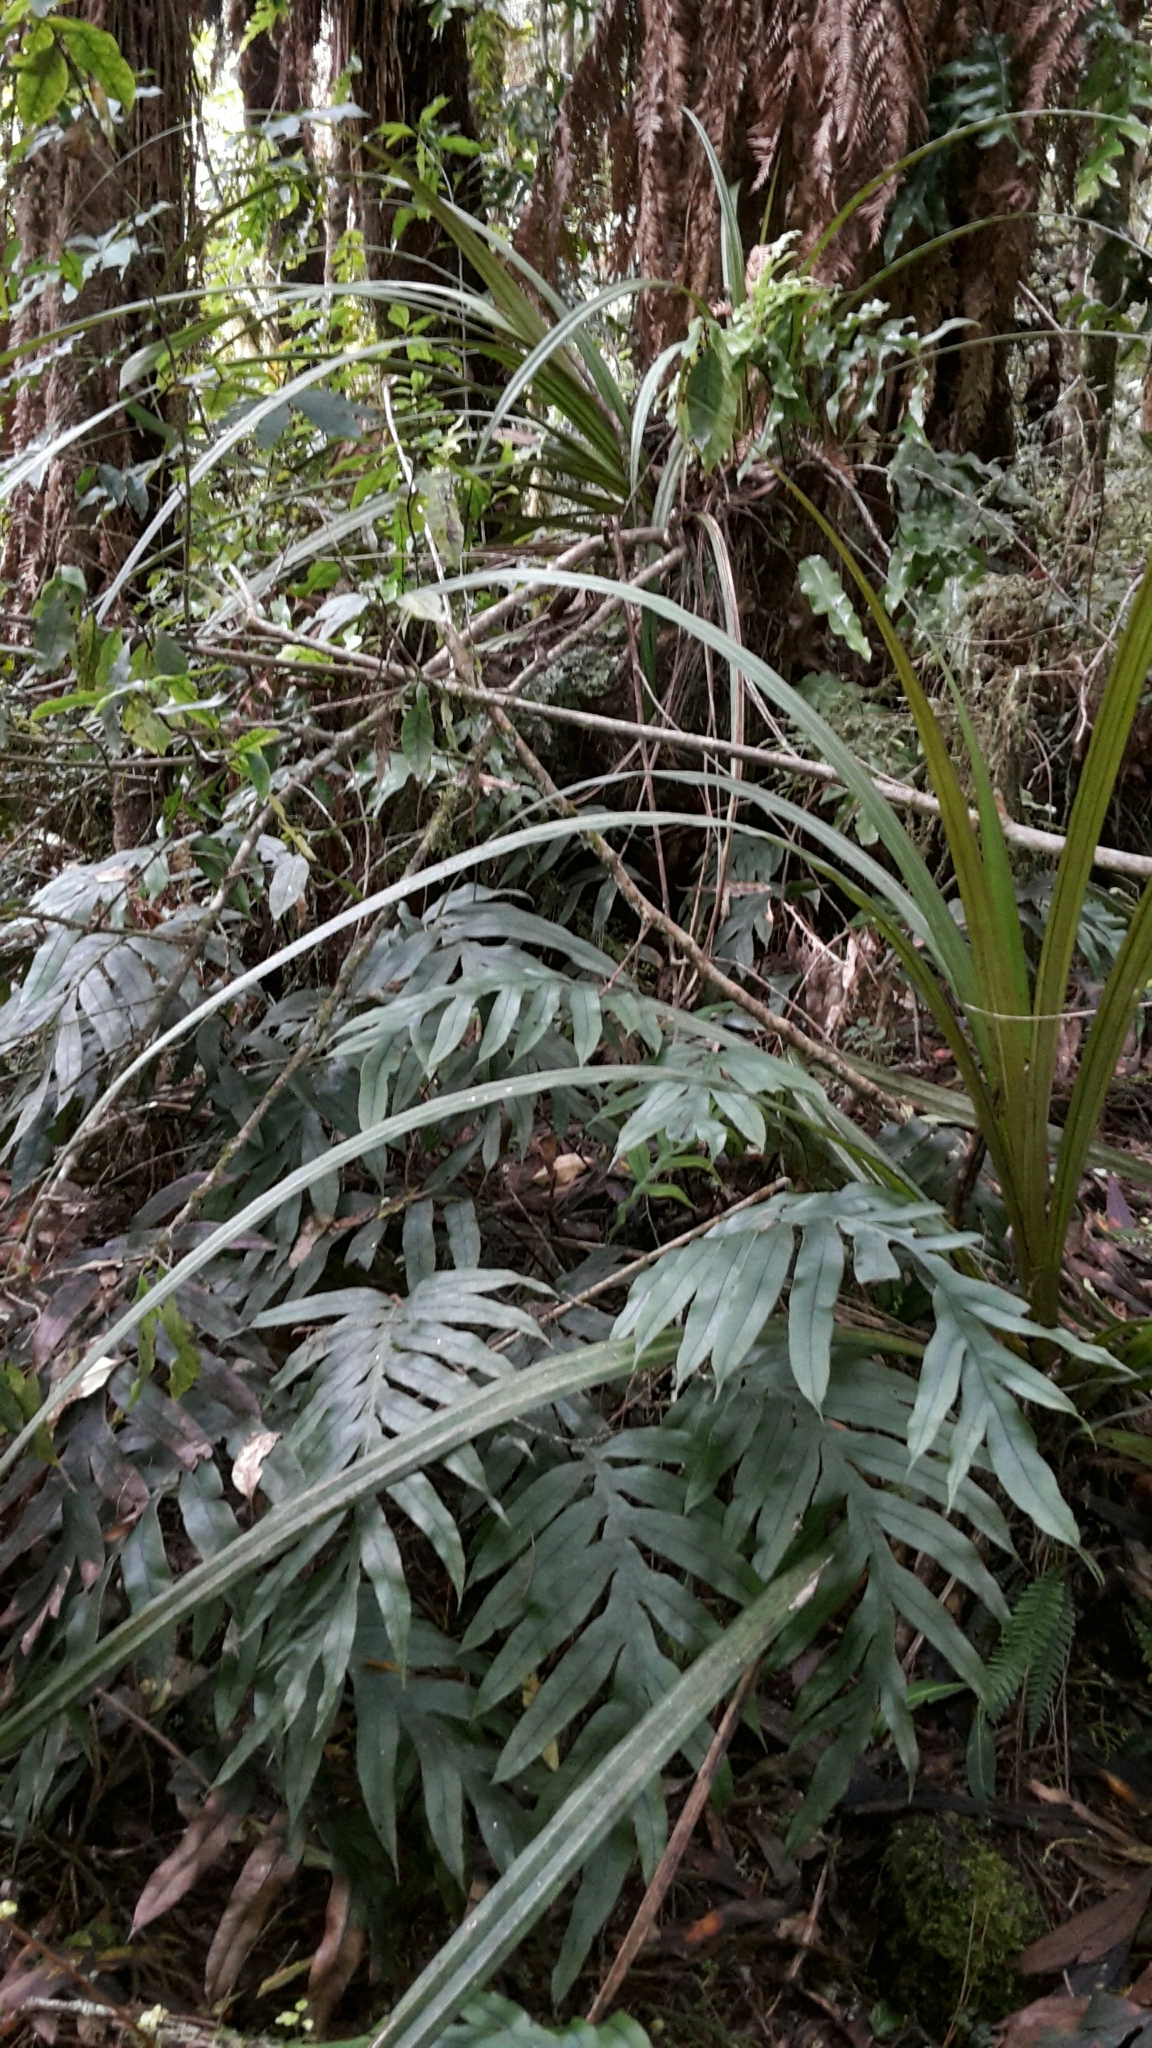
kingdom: Plantae
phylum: Tracheophyta
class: Polypodiopsida
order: Polypodiales
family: Blechnaceae
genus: Austroblechnum
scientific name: Austroblechnum colensoi
